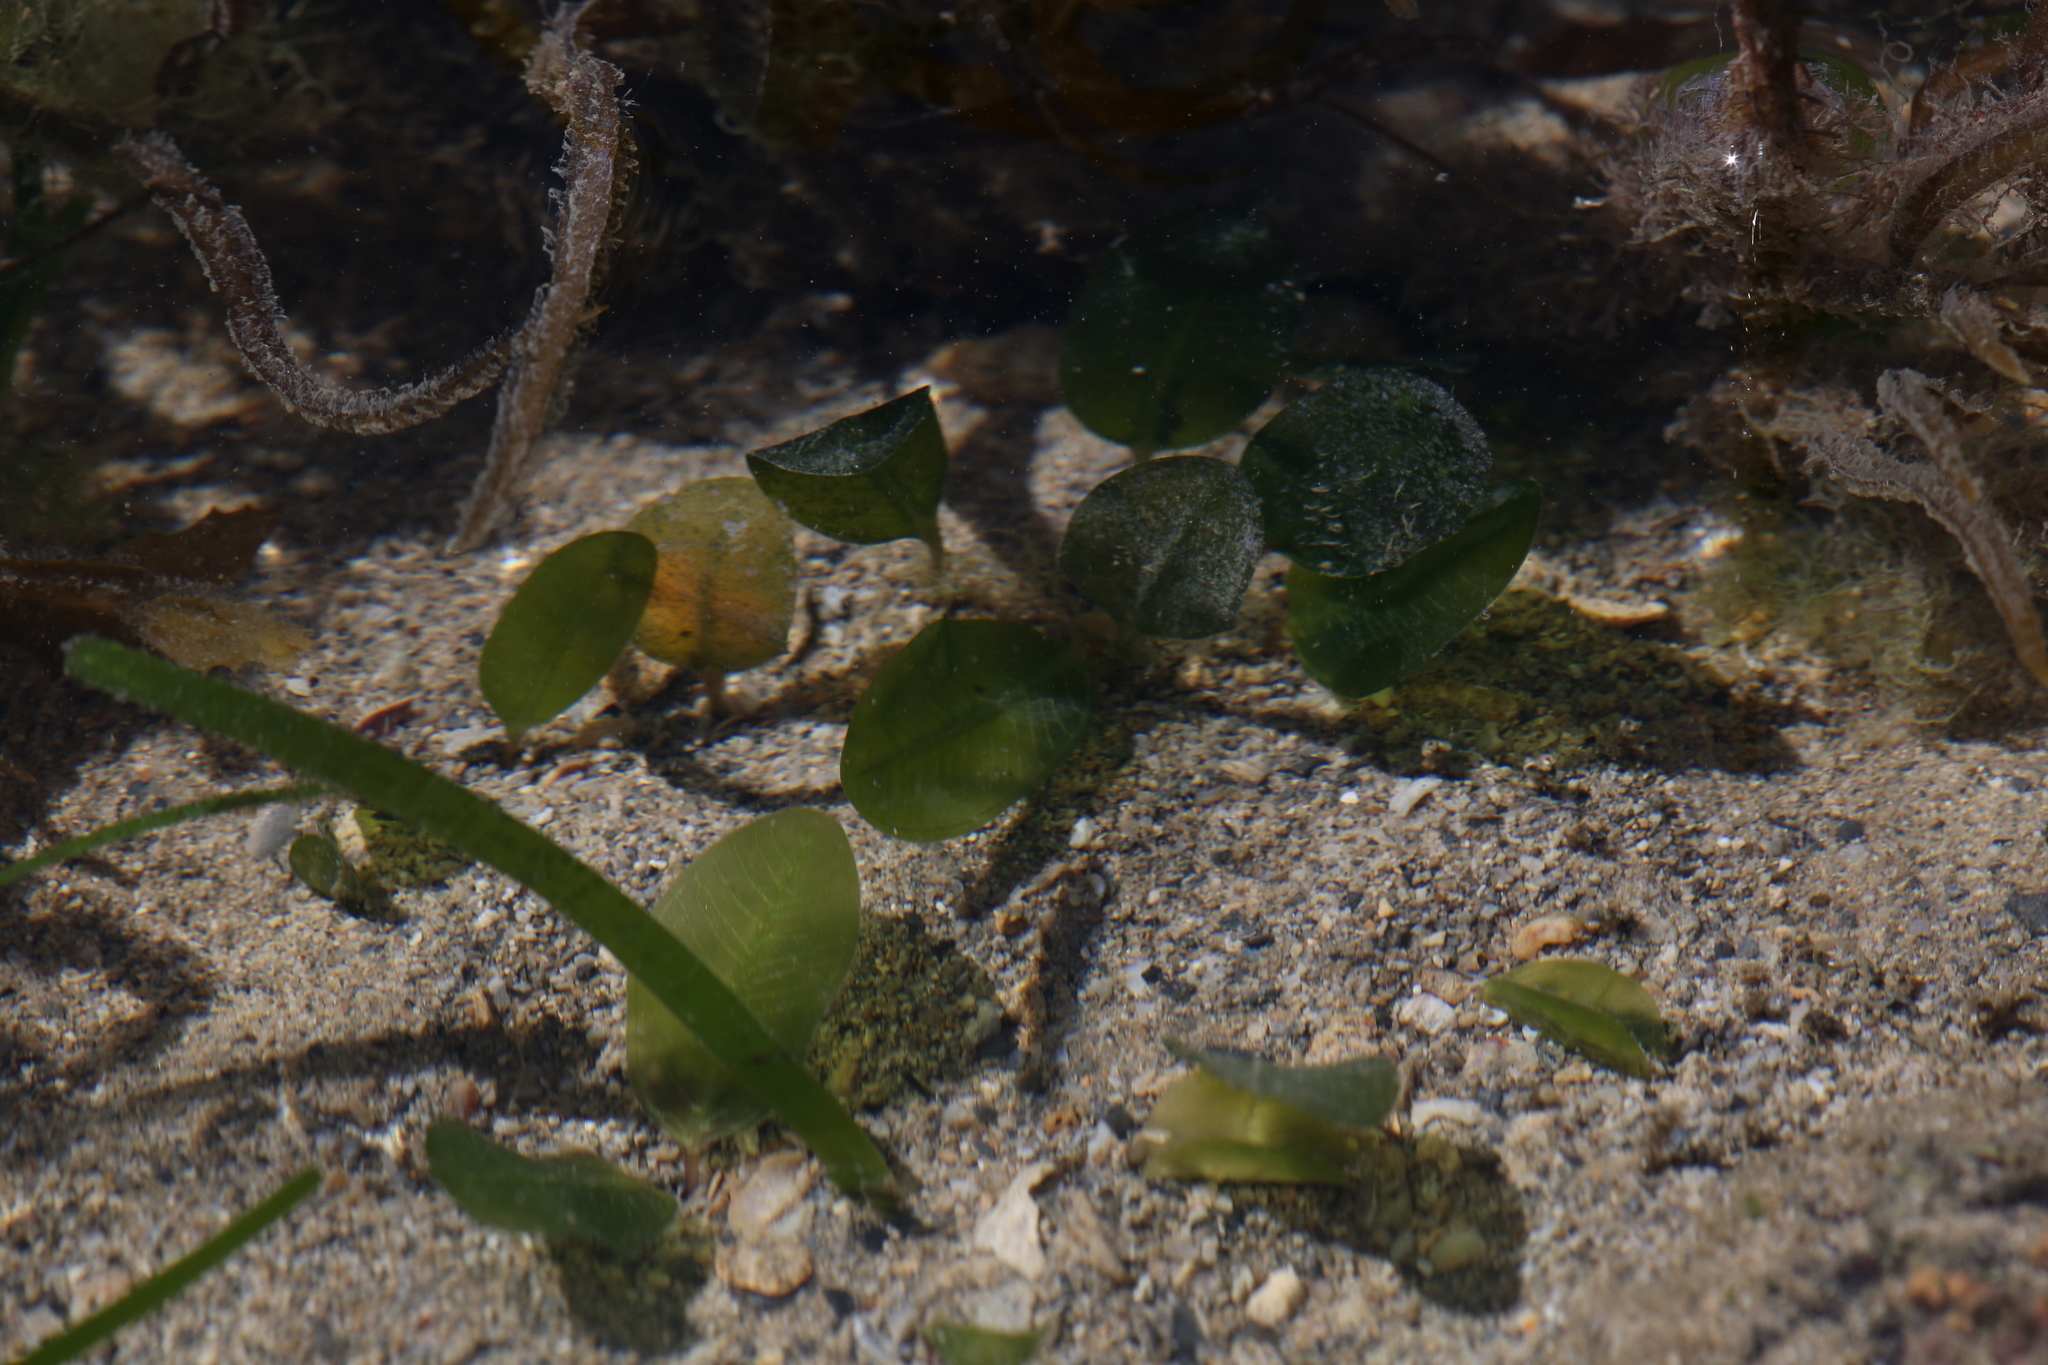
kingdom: Plantae
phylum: Tracheophyta
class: Liliopsida
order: Alismatales
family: Hydrocharitaceae
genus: Halophila
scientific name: Halophila ovalis
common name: Species code: ho
